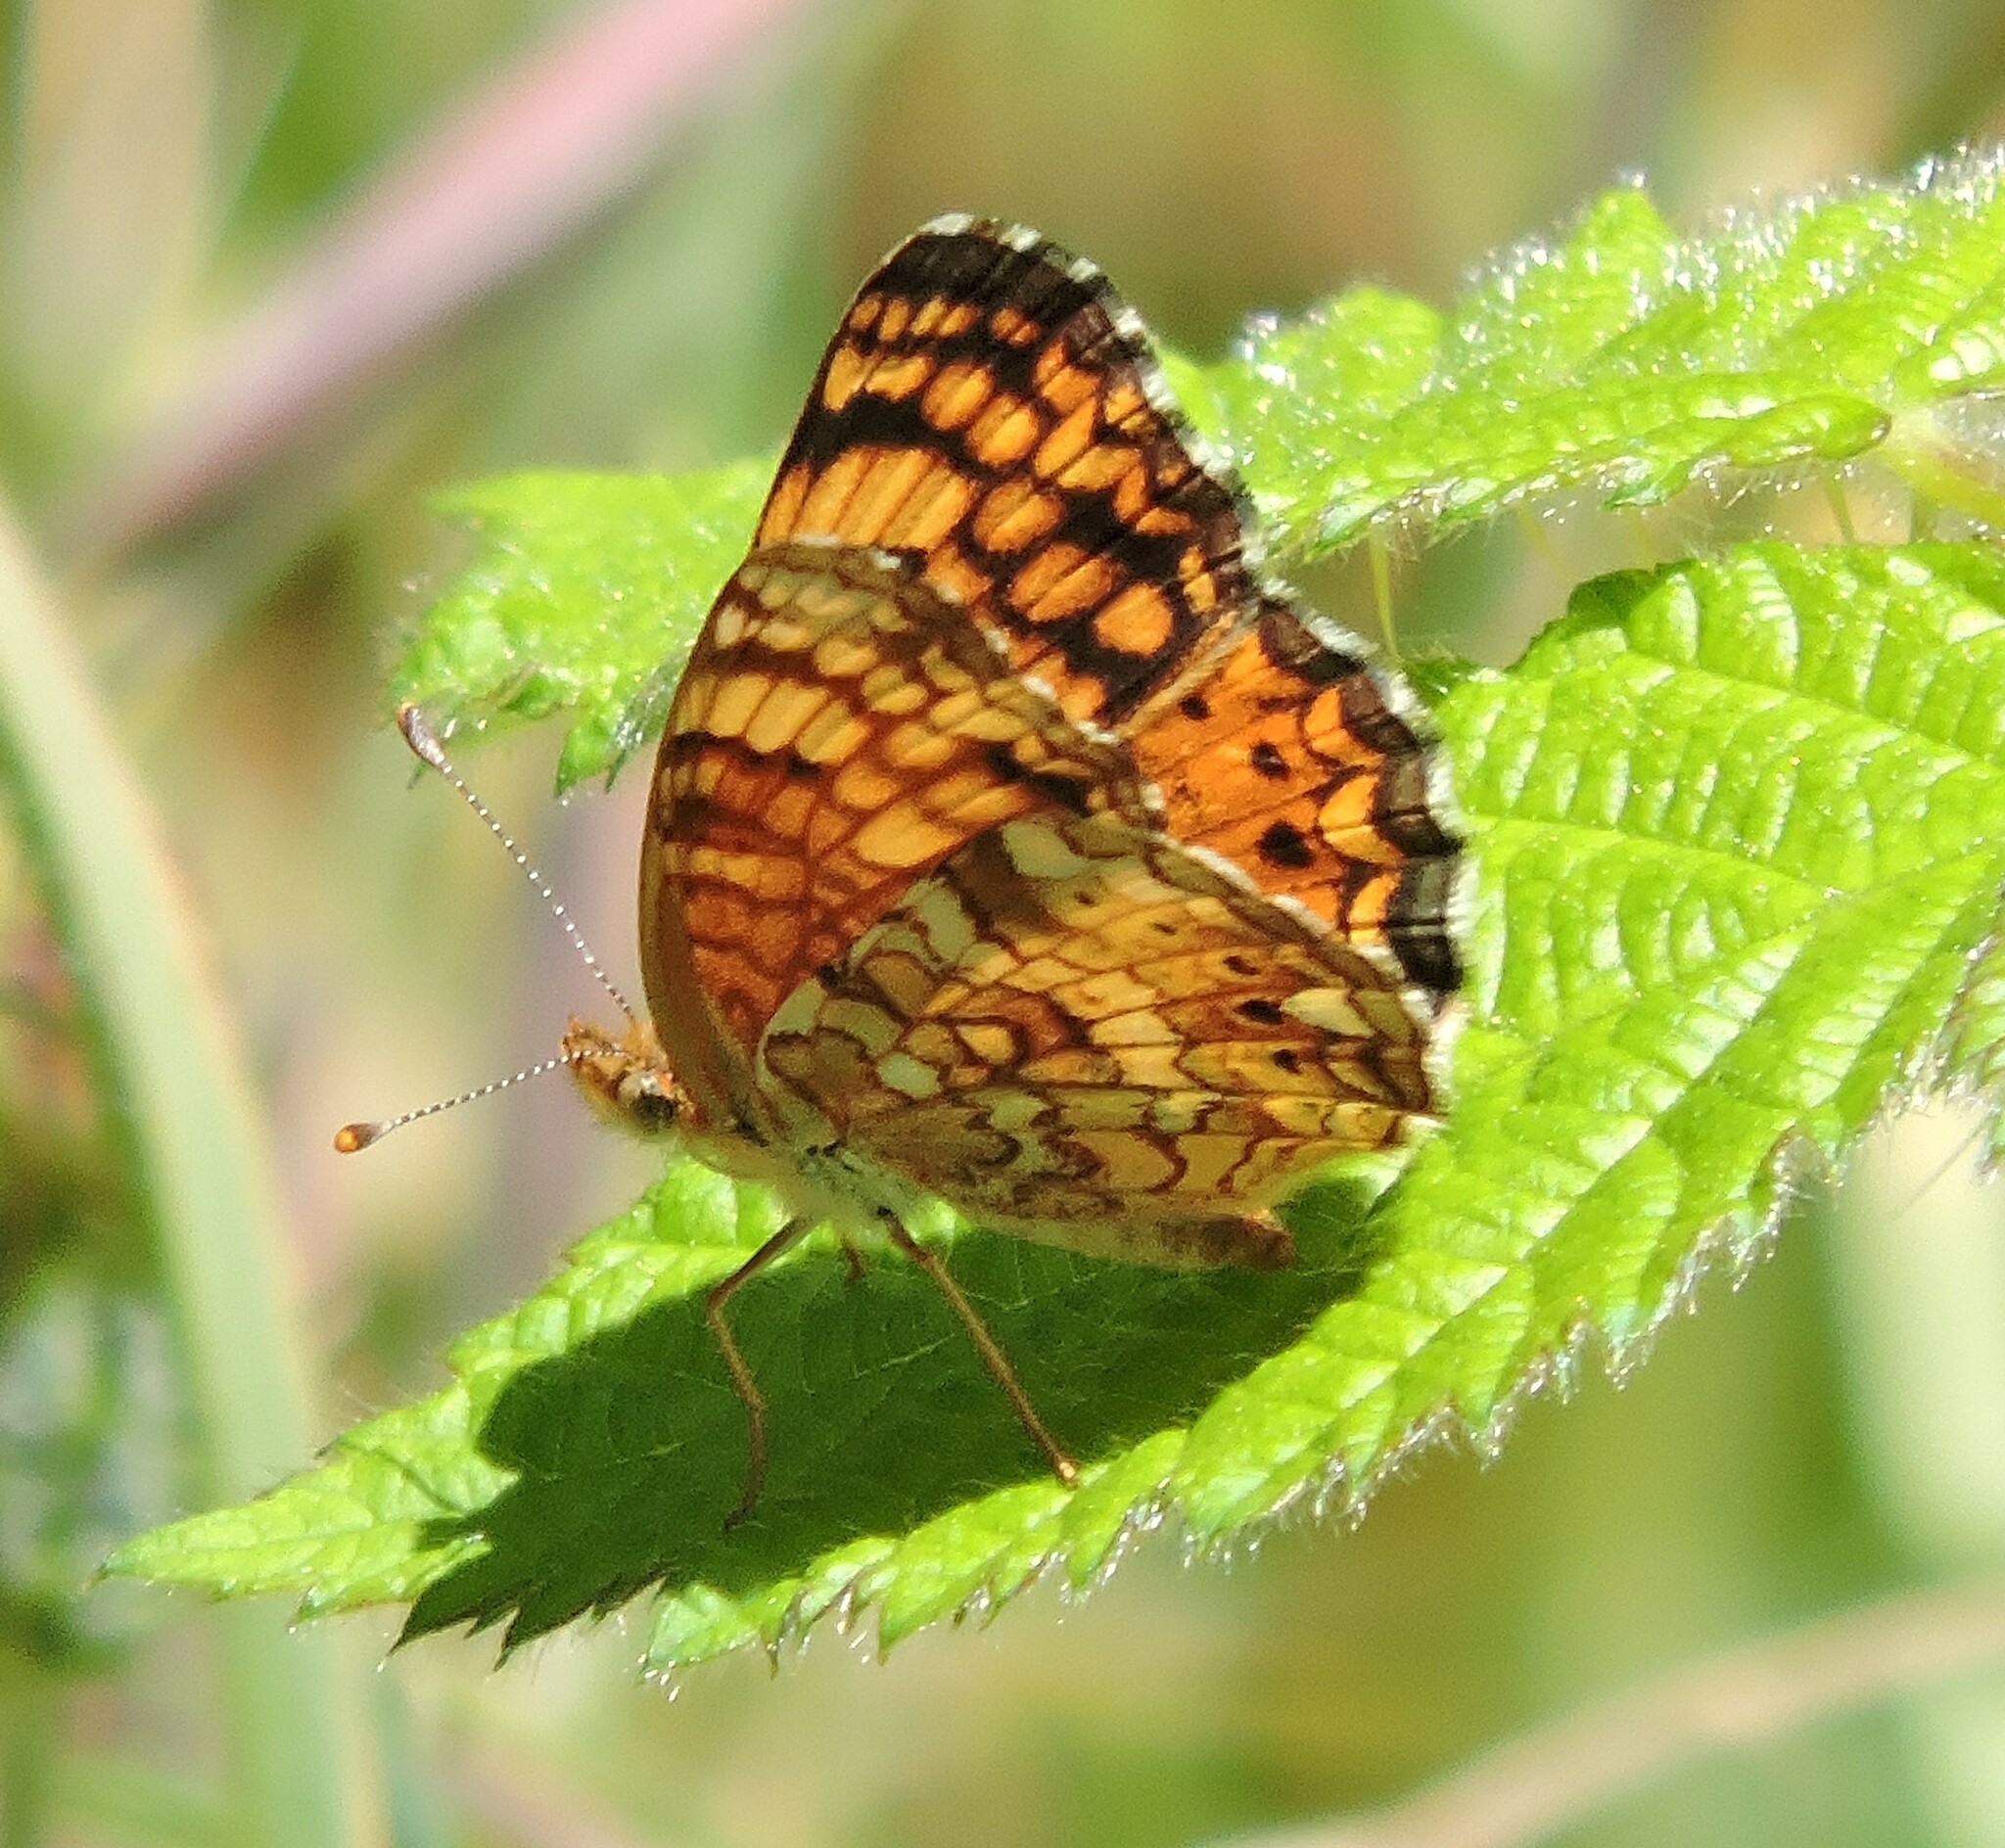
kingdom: Animalia
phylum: Arthropoda
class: Insecta
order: Lepidoptera
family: Nymphalidae
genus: Eresia
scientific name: Eresia aveyrona
